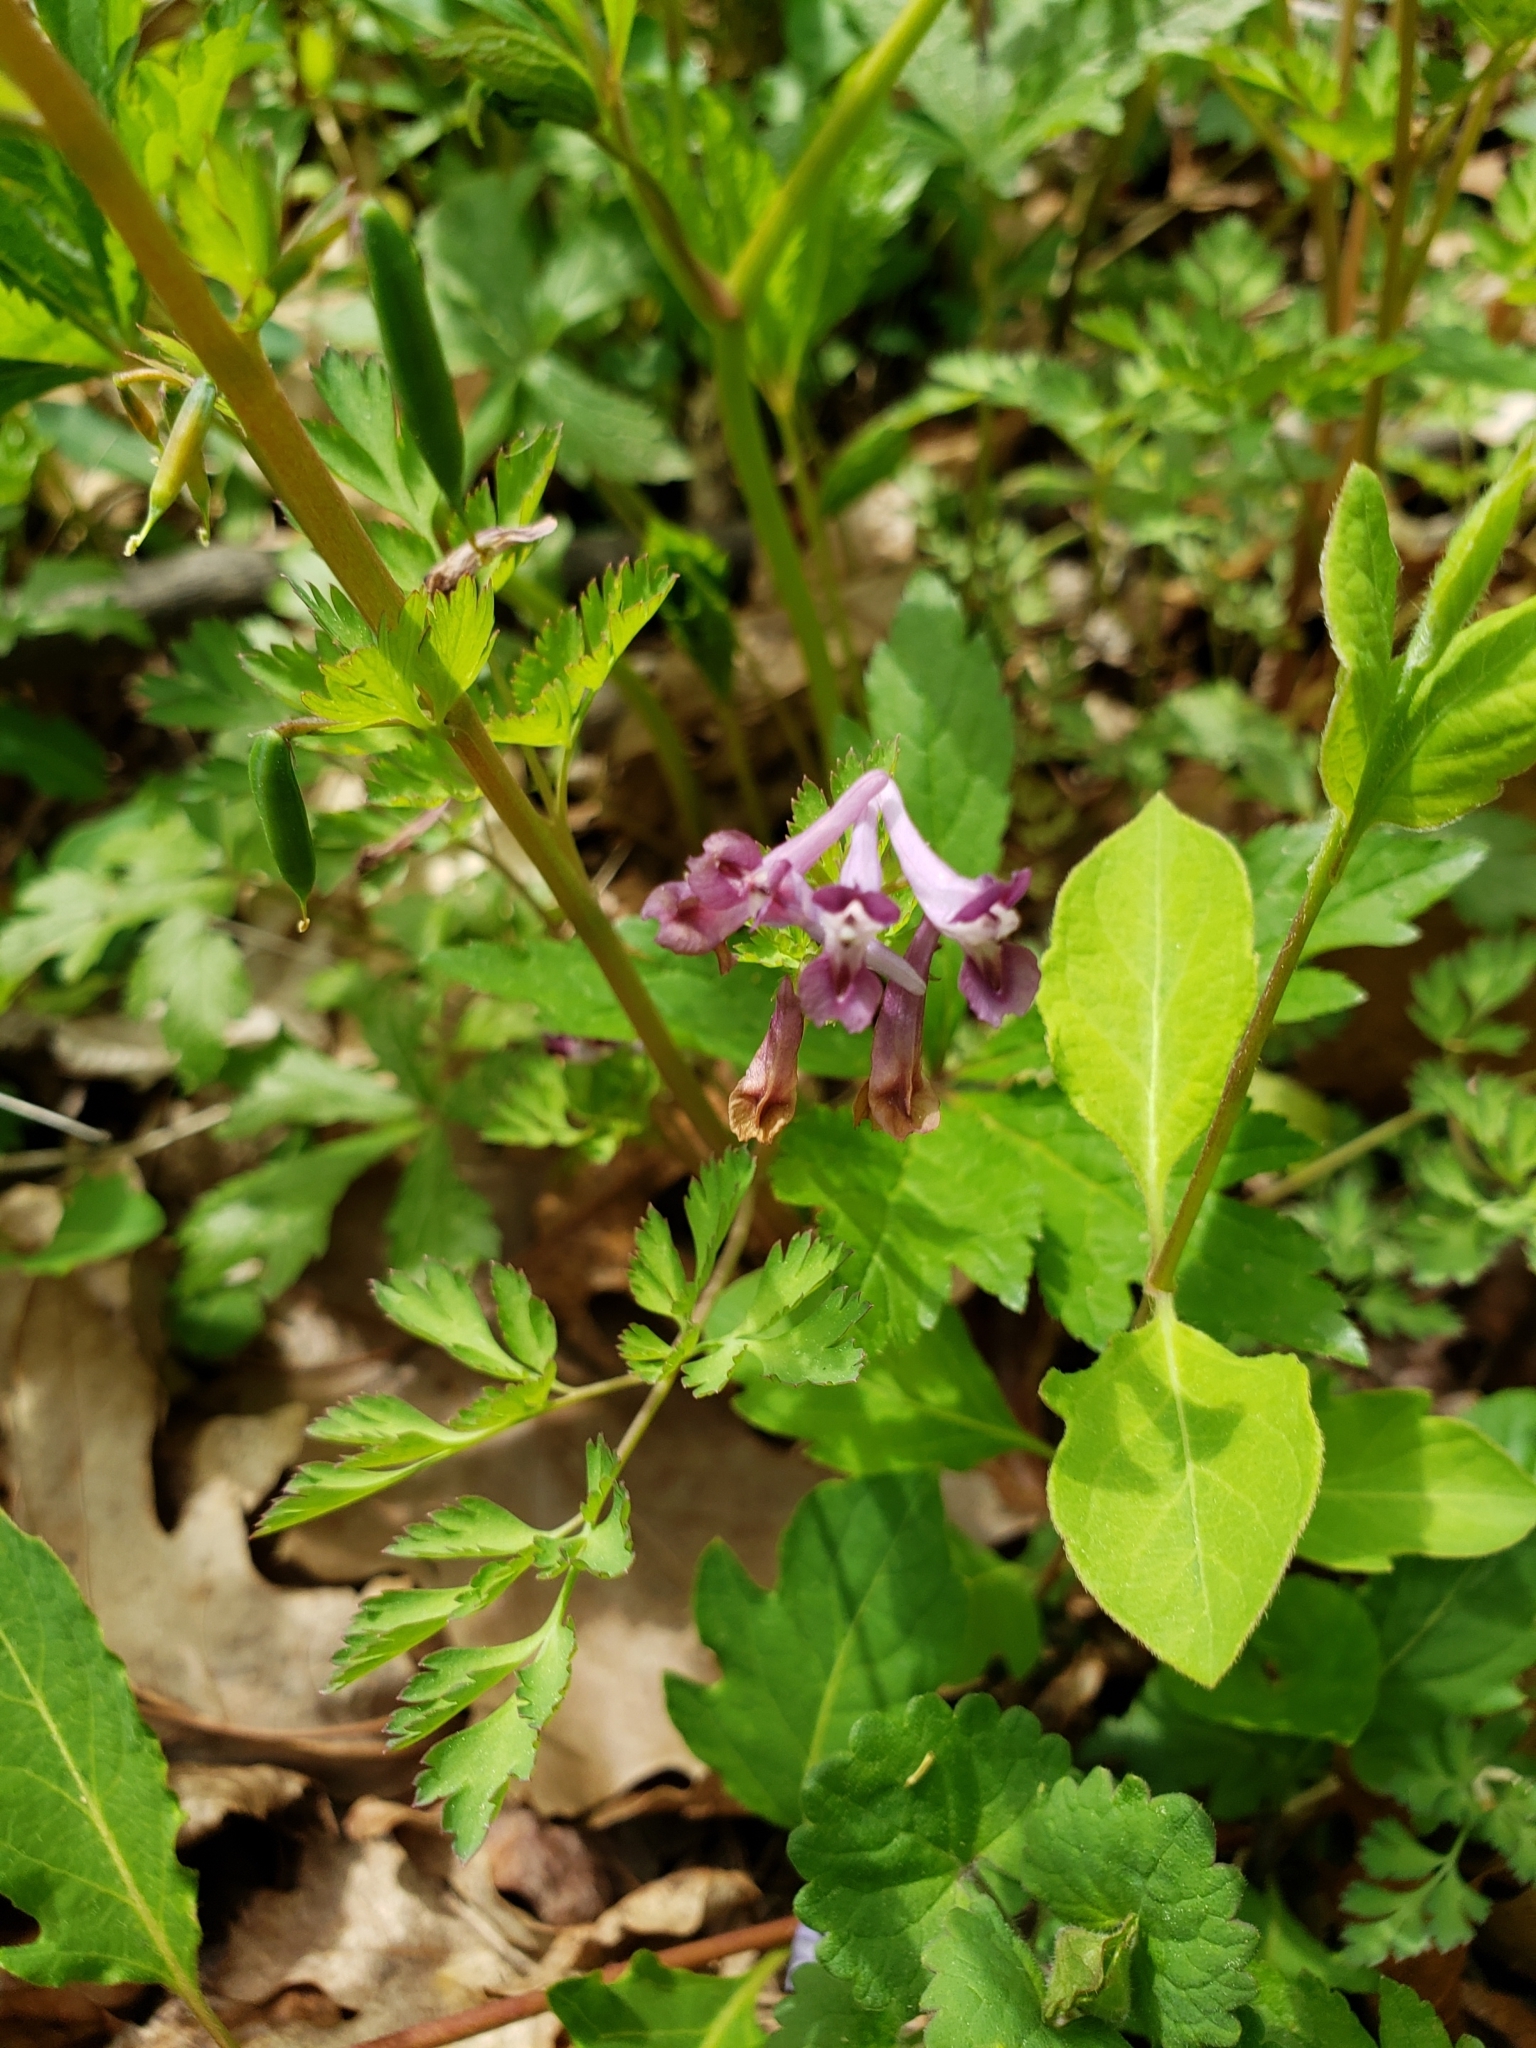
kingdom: Plantae
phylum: Tracheophyta
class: Magnoliopsida
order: Ranunculales
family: Papaveraceae
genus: Corydalis
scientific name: Corydalis incisa
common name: Incised fumewort
